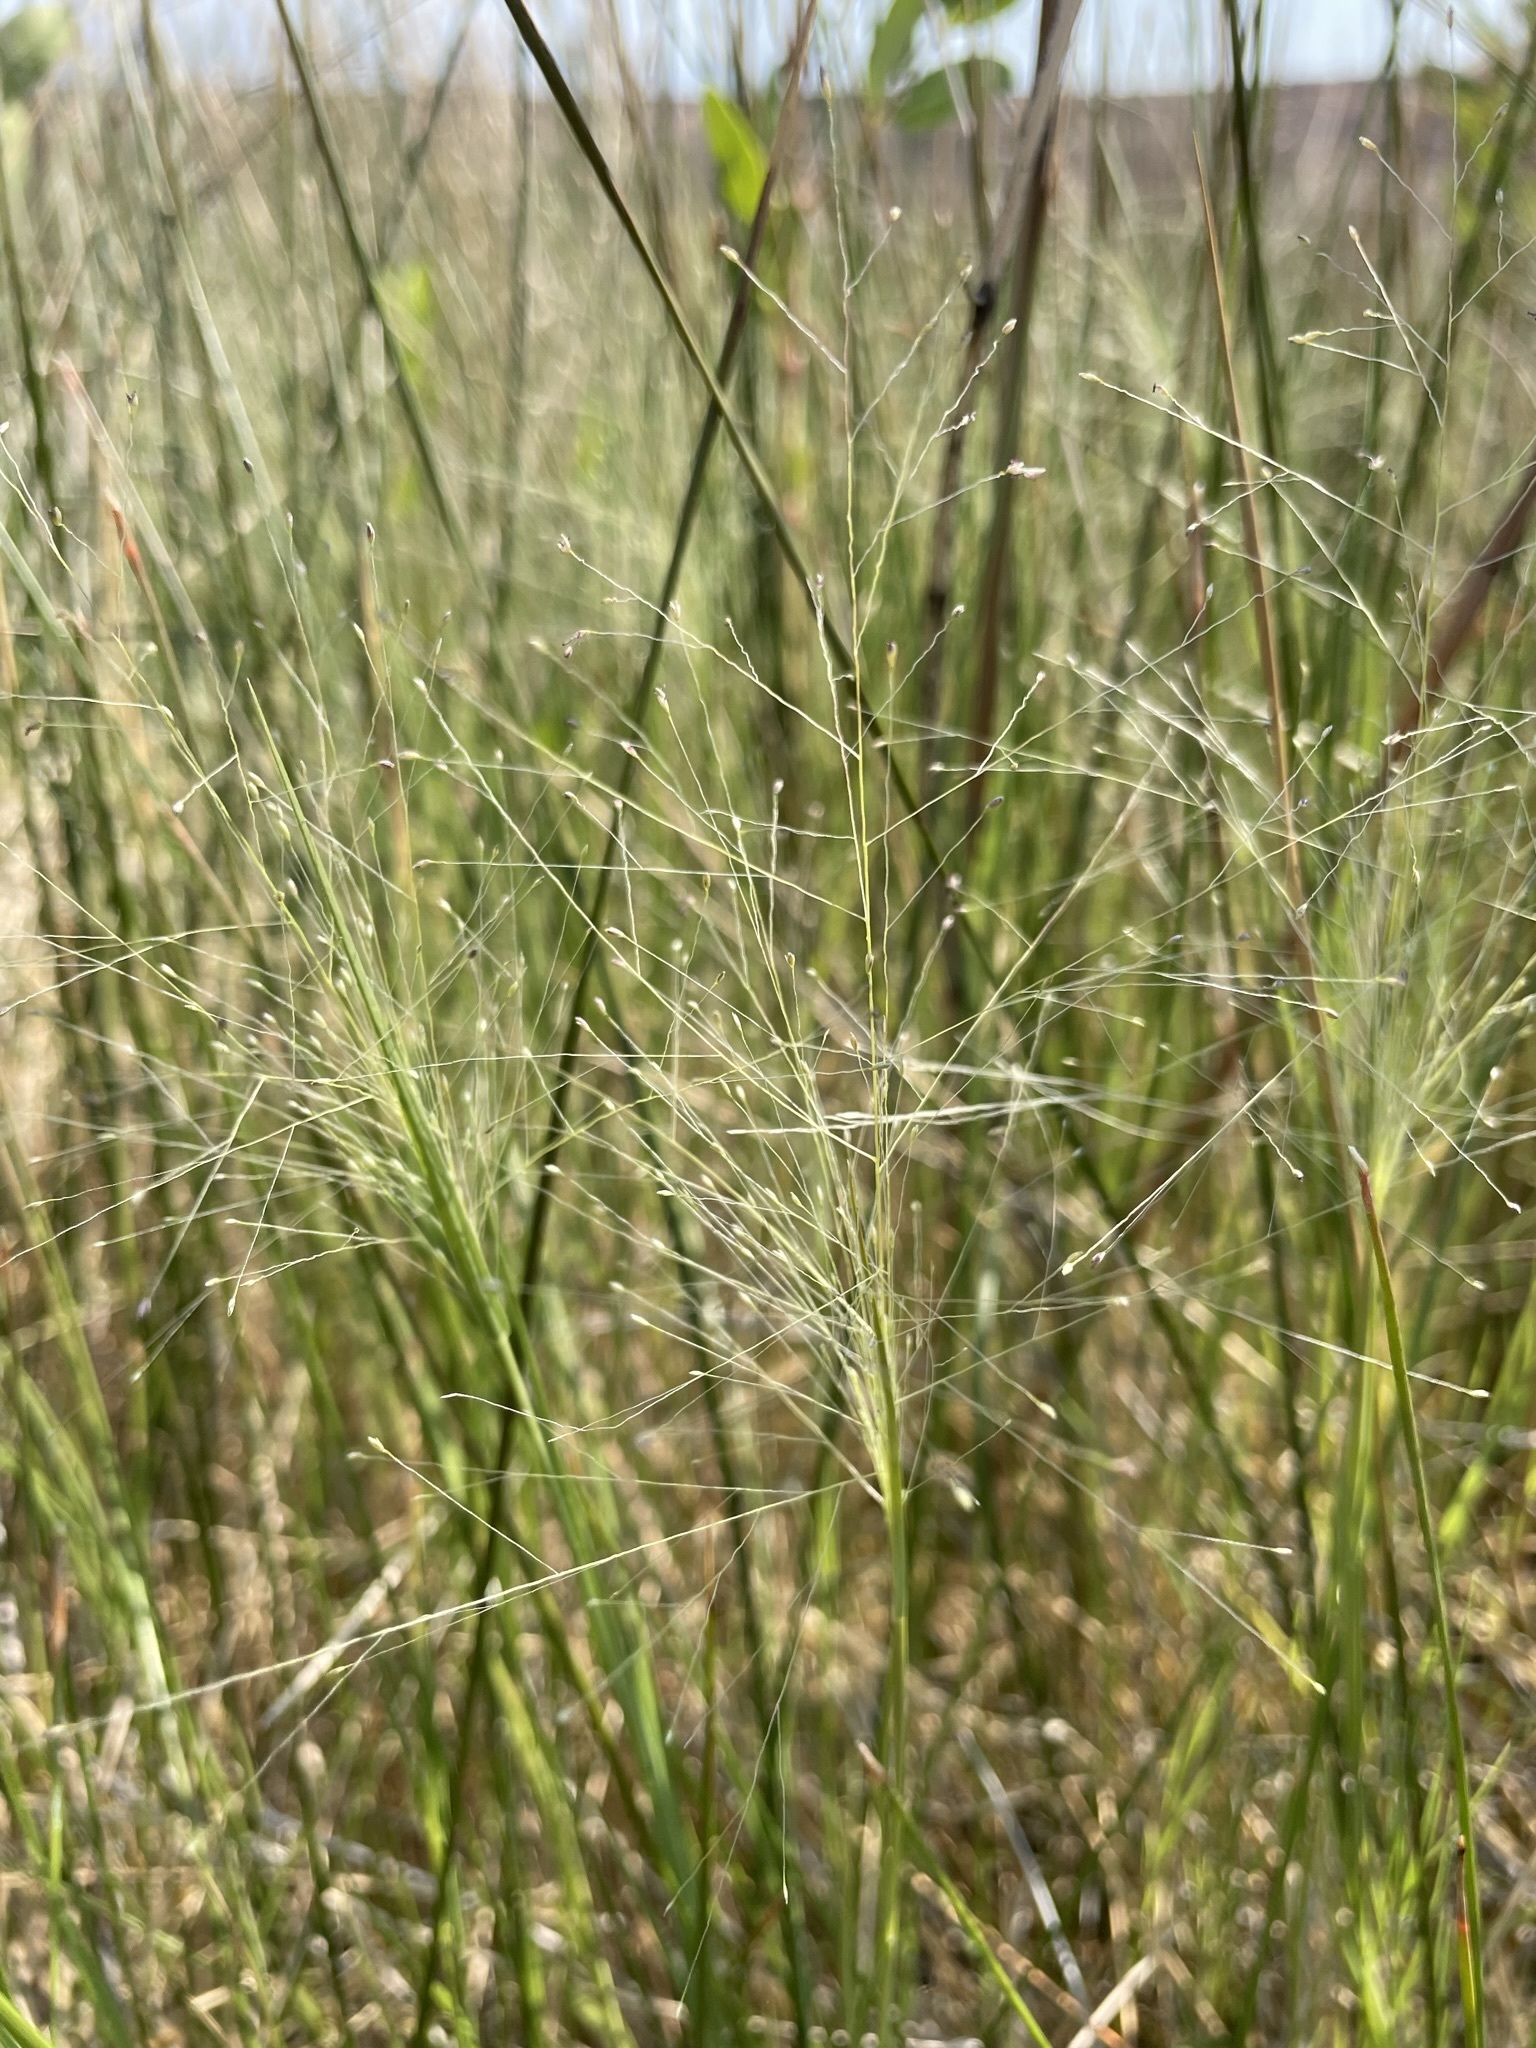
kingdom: Plantae
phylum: Tracheophyta
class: Liliopsida
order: Poales
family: Poaceae
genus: Muhlenbergia
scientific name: Muhlenbergia asperifolia
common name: Alkali muhly
